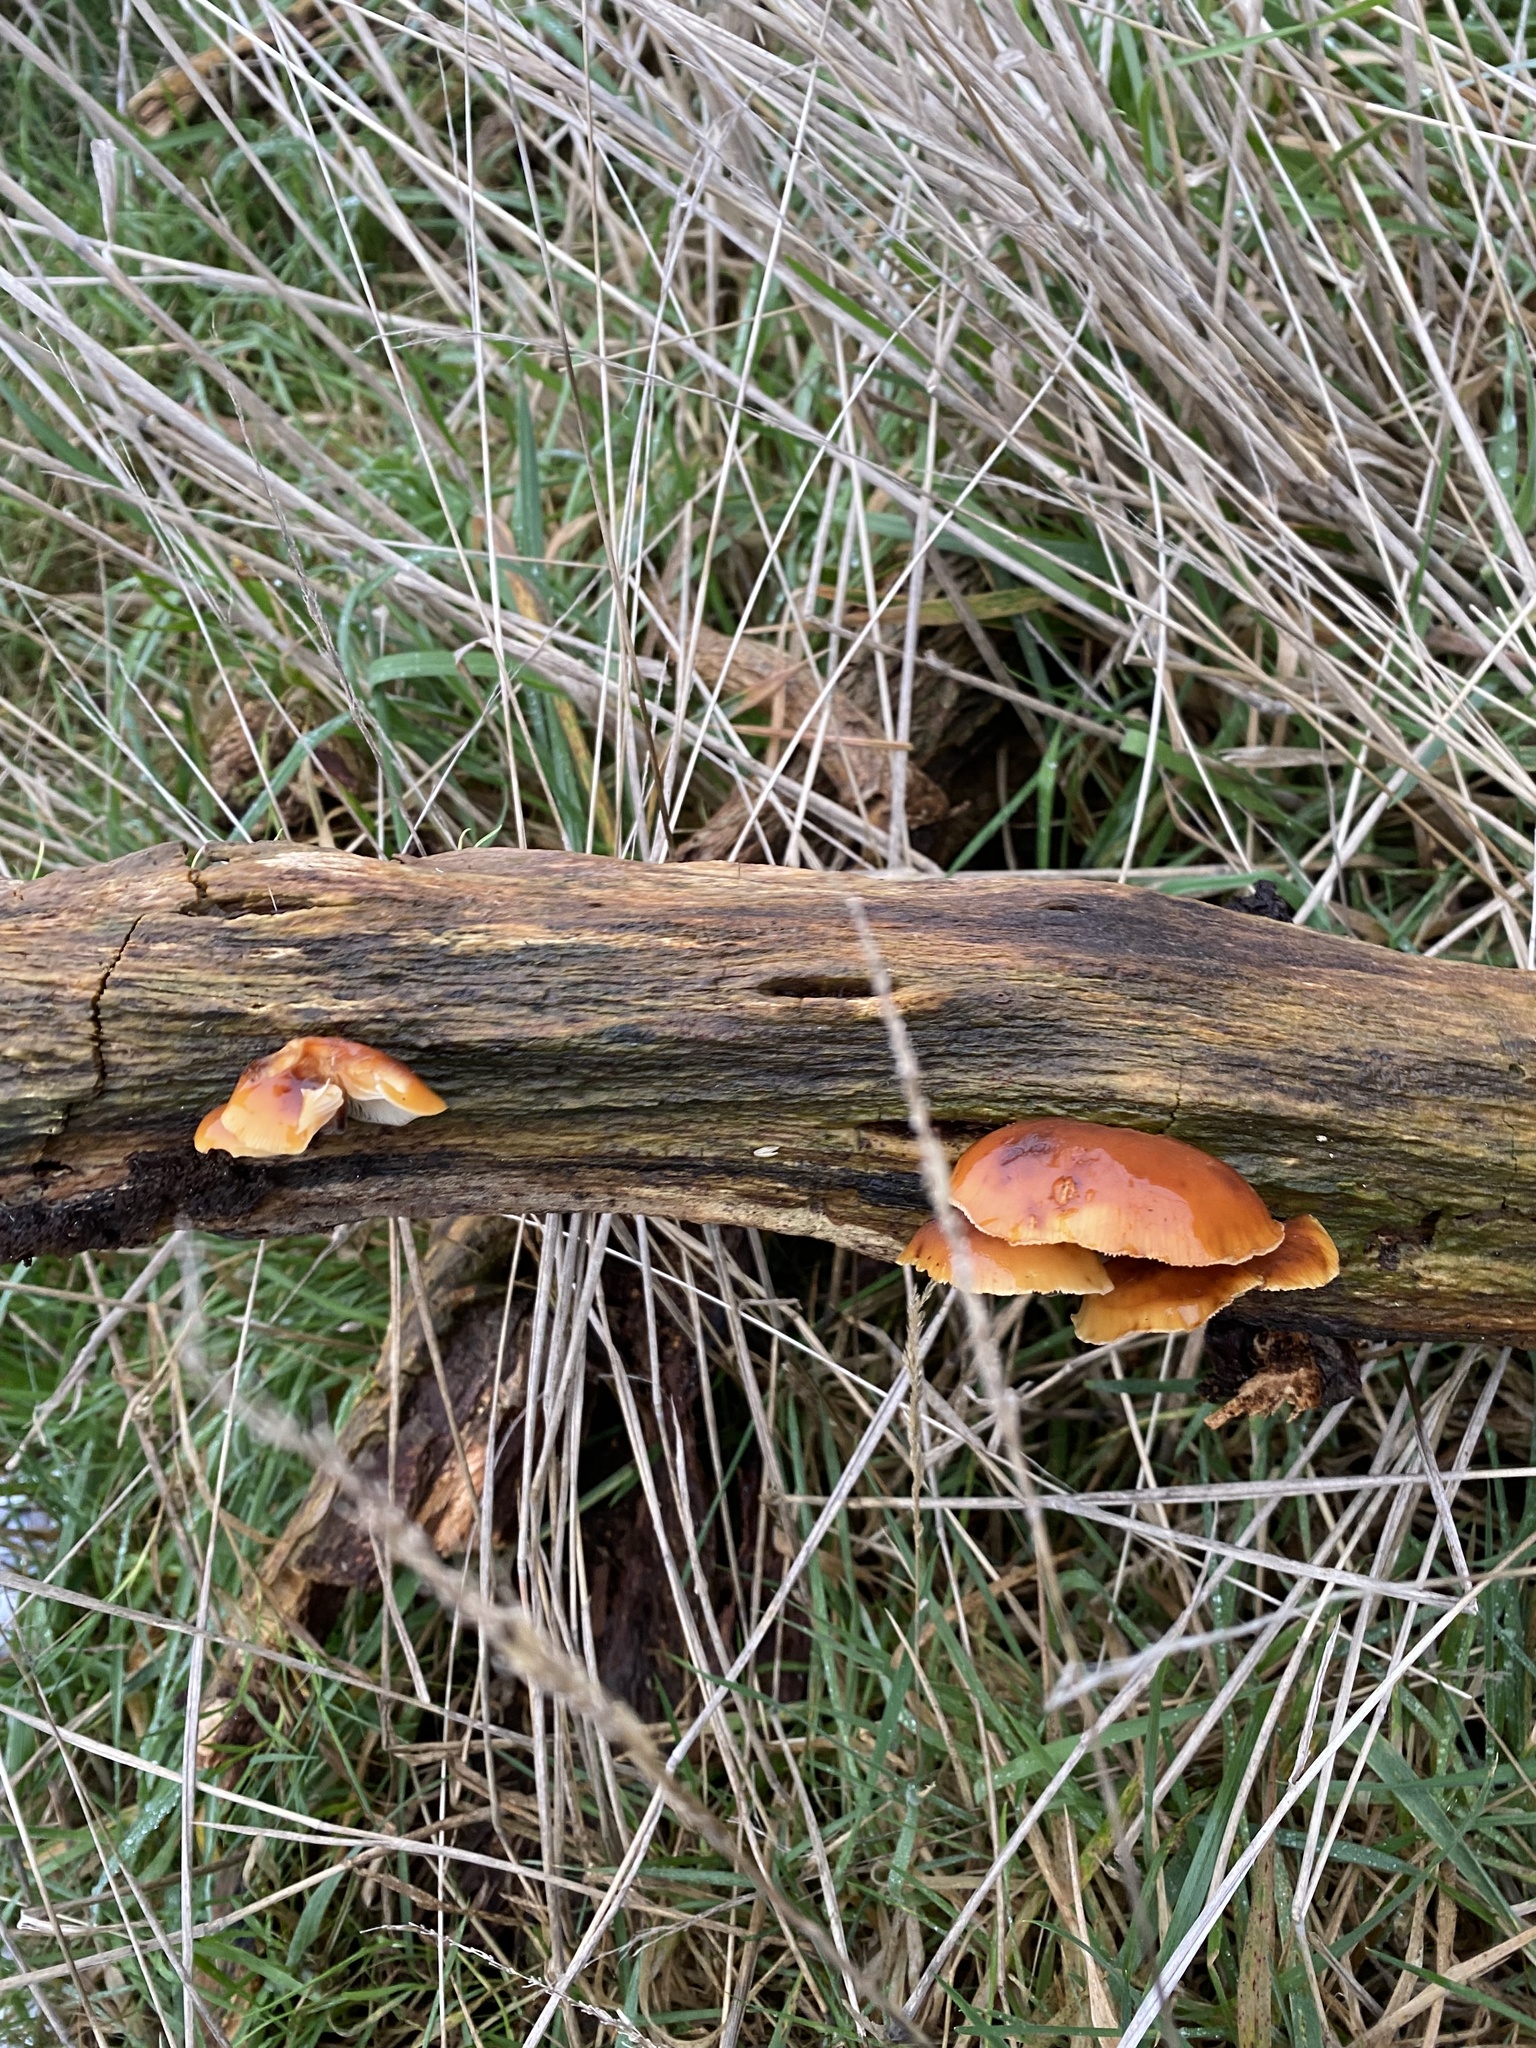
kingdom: Fungi
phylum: Basidiomycota
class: Agaricomycetes
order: Agaricales
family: Physalacriaceae
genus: Flammulina
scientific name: Flammulina velutipes
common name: Velvet shank
